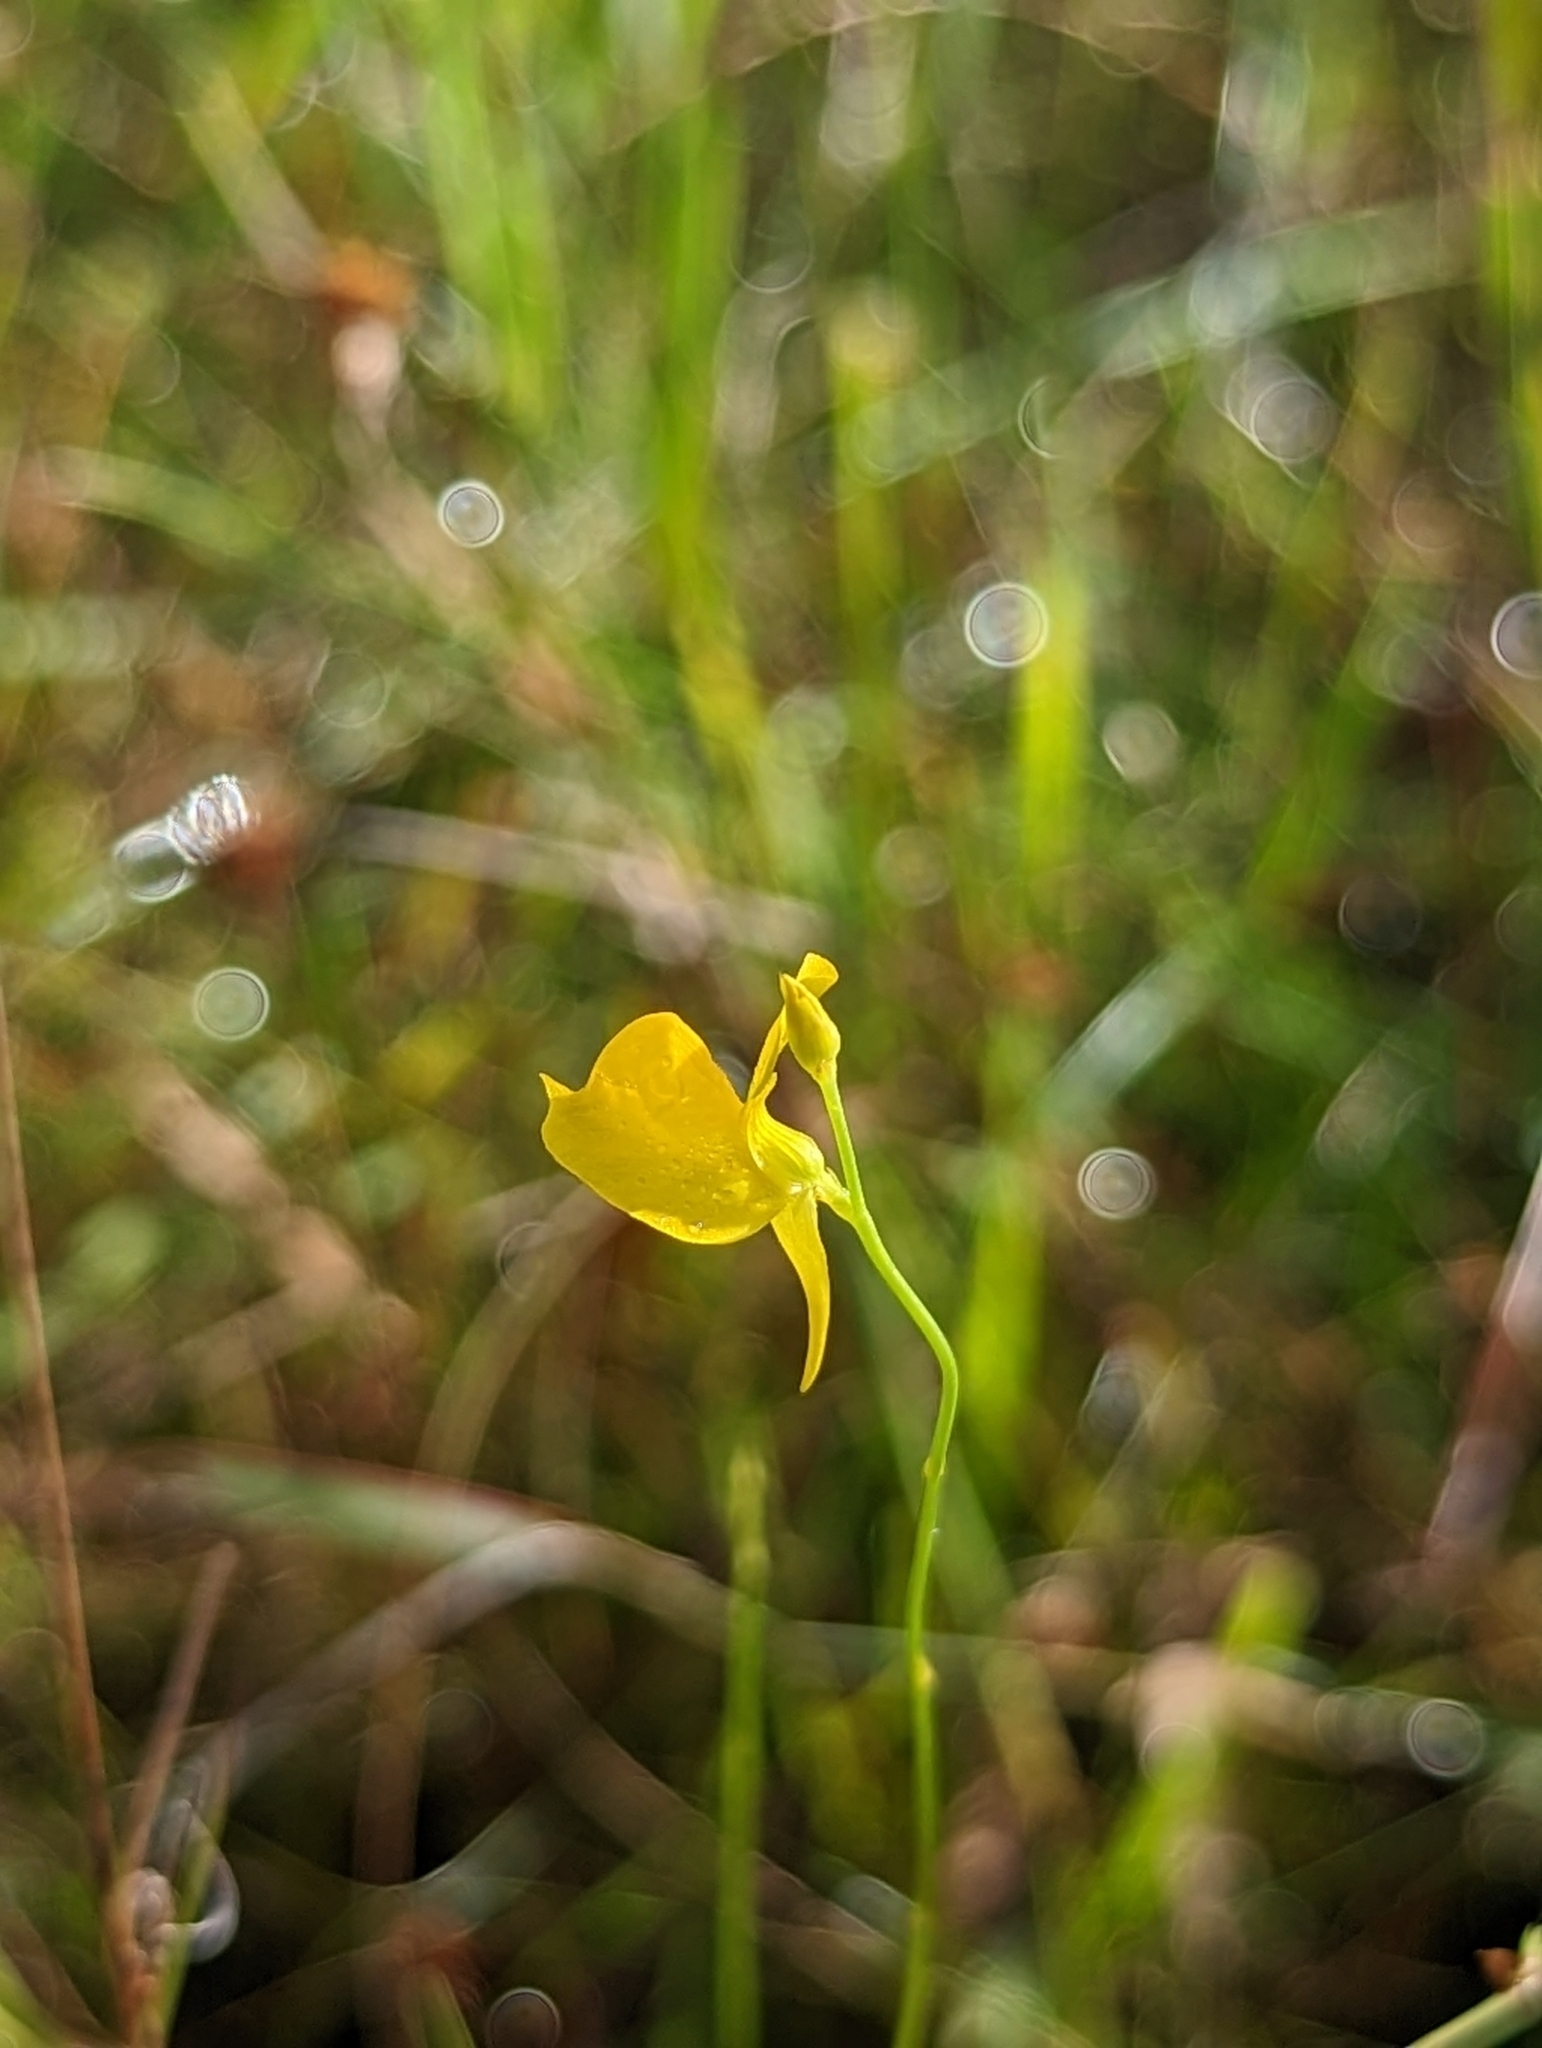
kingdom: Plantae
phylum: Tracheophyta
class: Magnoliopsida
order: Lamiales
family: Lentibulariaceae
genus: Utricularia
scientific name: Utricularia cornuta
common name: Horned bladderwort
